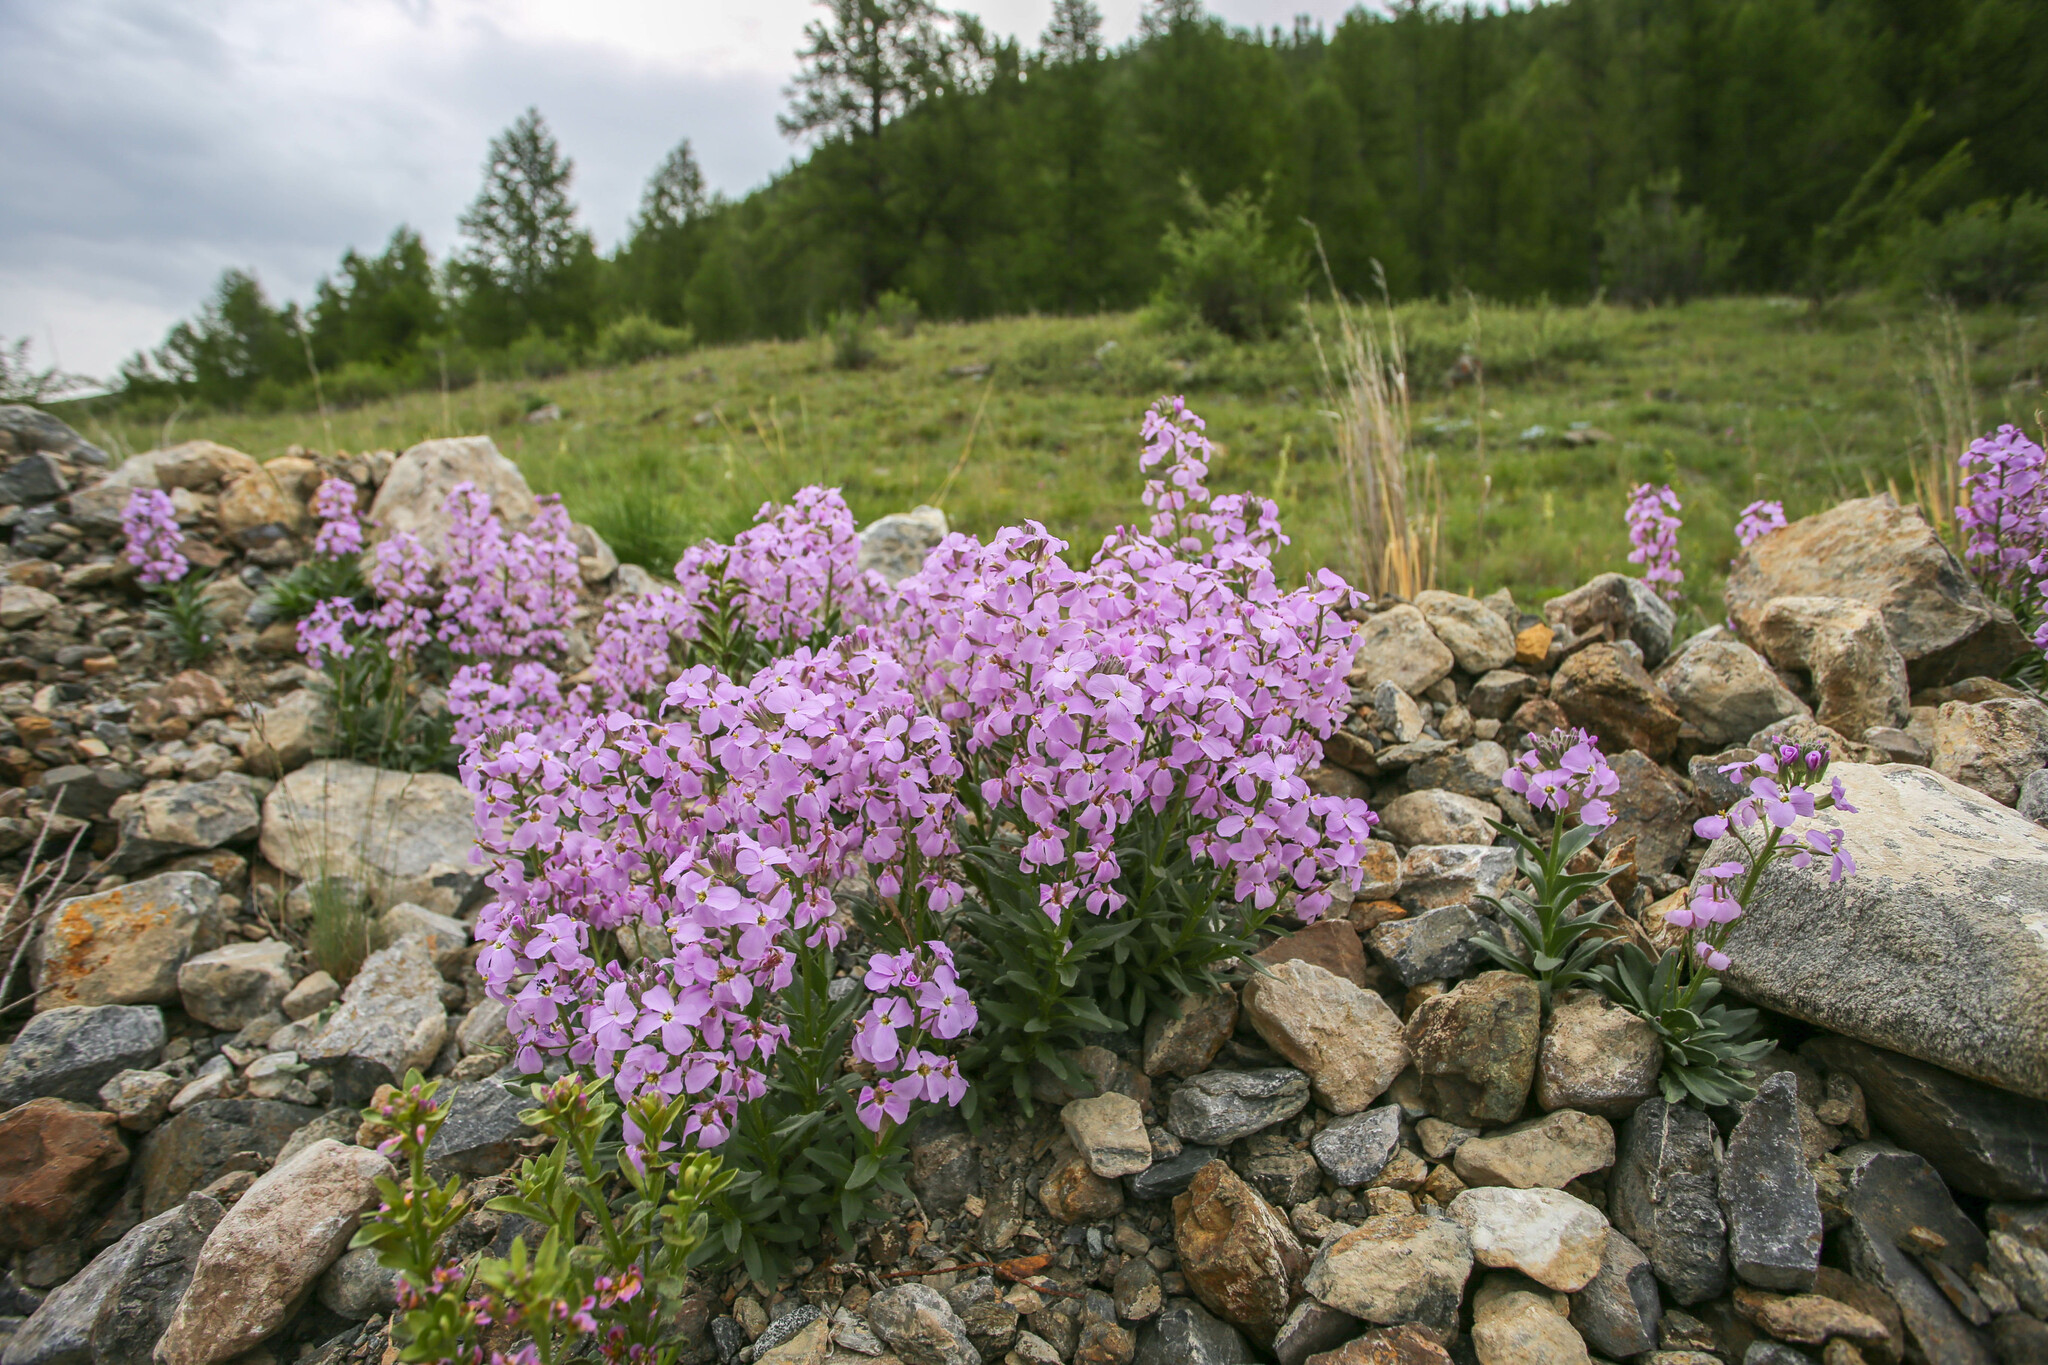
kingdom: Plantae
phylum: Tracheophyta
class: Magnoliopsida
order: Brassicales
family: Brassicaceae
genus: Clausia
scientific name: Clausia aprica
